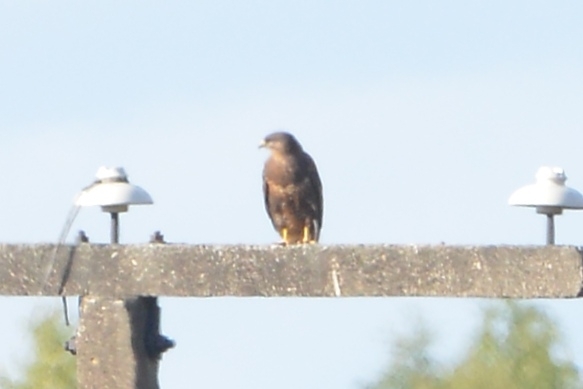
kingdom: Animalia
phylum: Chordata
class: Aves
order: Accipitriformes
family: Accipitridae
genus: Buteo
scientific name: Buteo buteo
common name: Common buzzard
